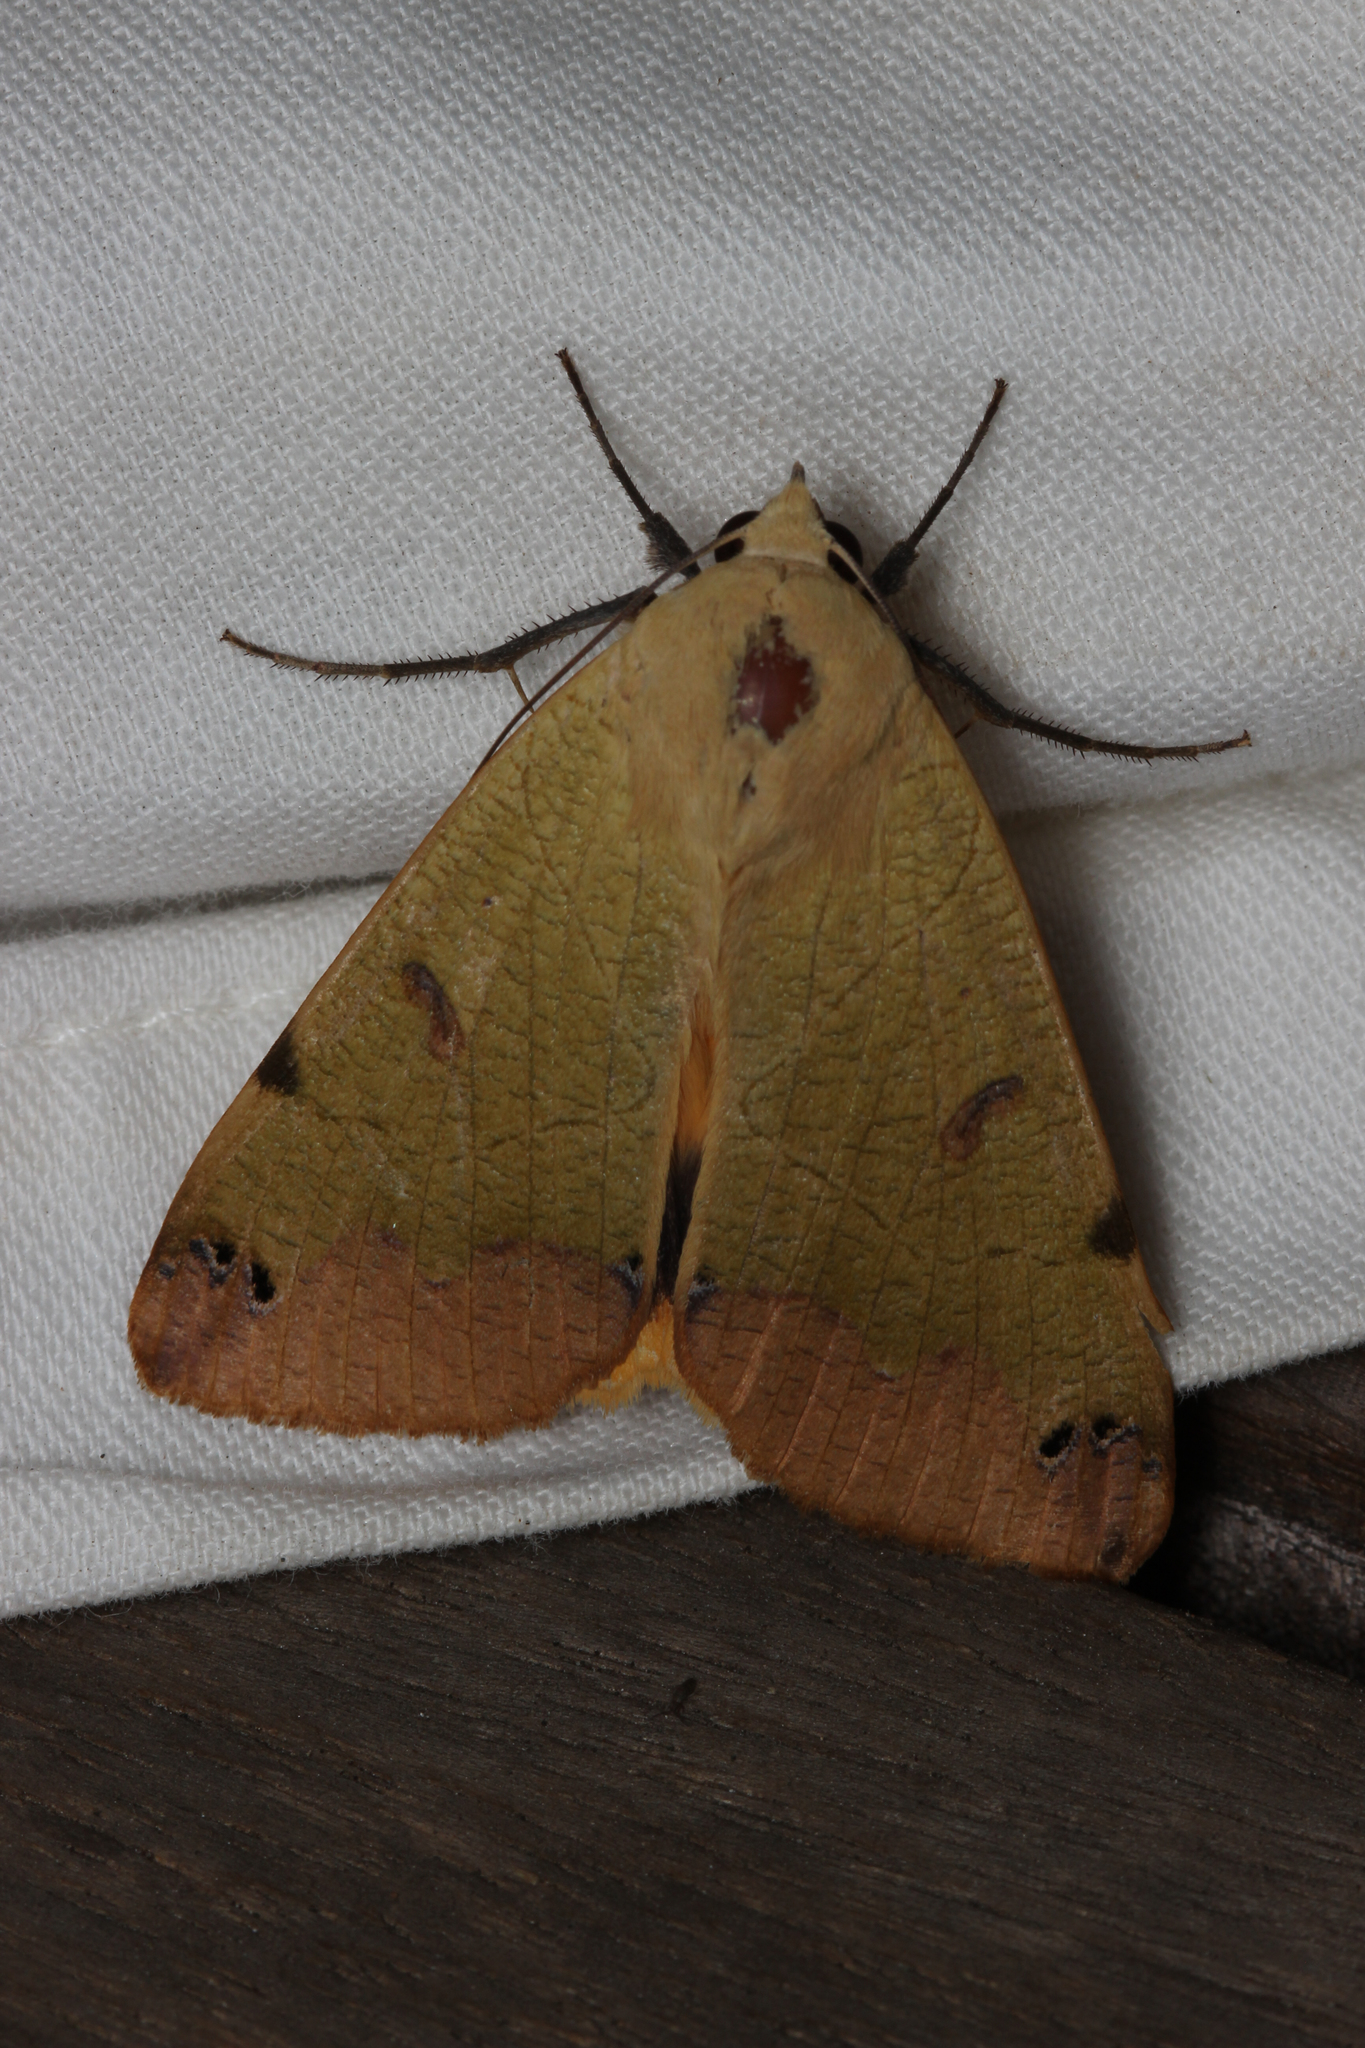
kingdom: Animalia
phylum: Arthropoda
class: Insecta
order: Lepidoptera
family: Erebidae
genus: Ophiusa
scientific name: Ophiusa tirhaca
